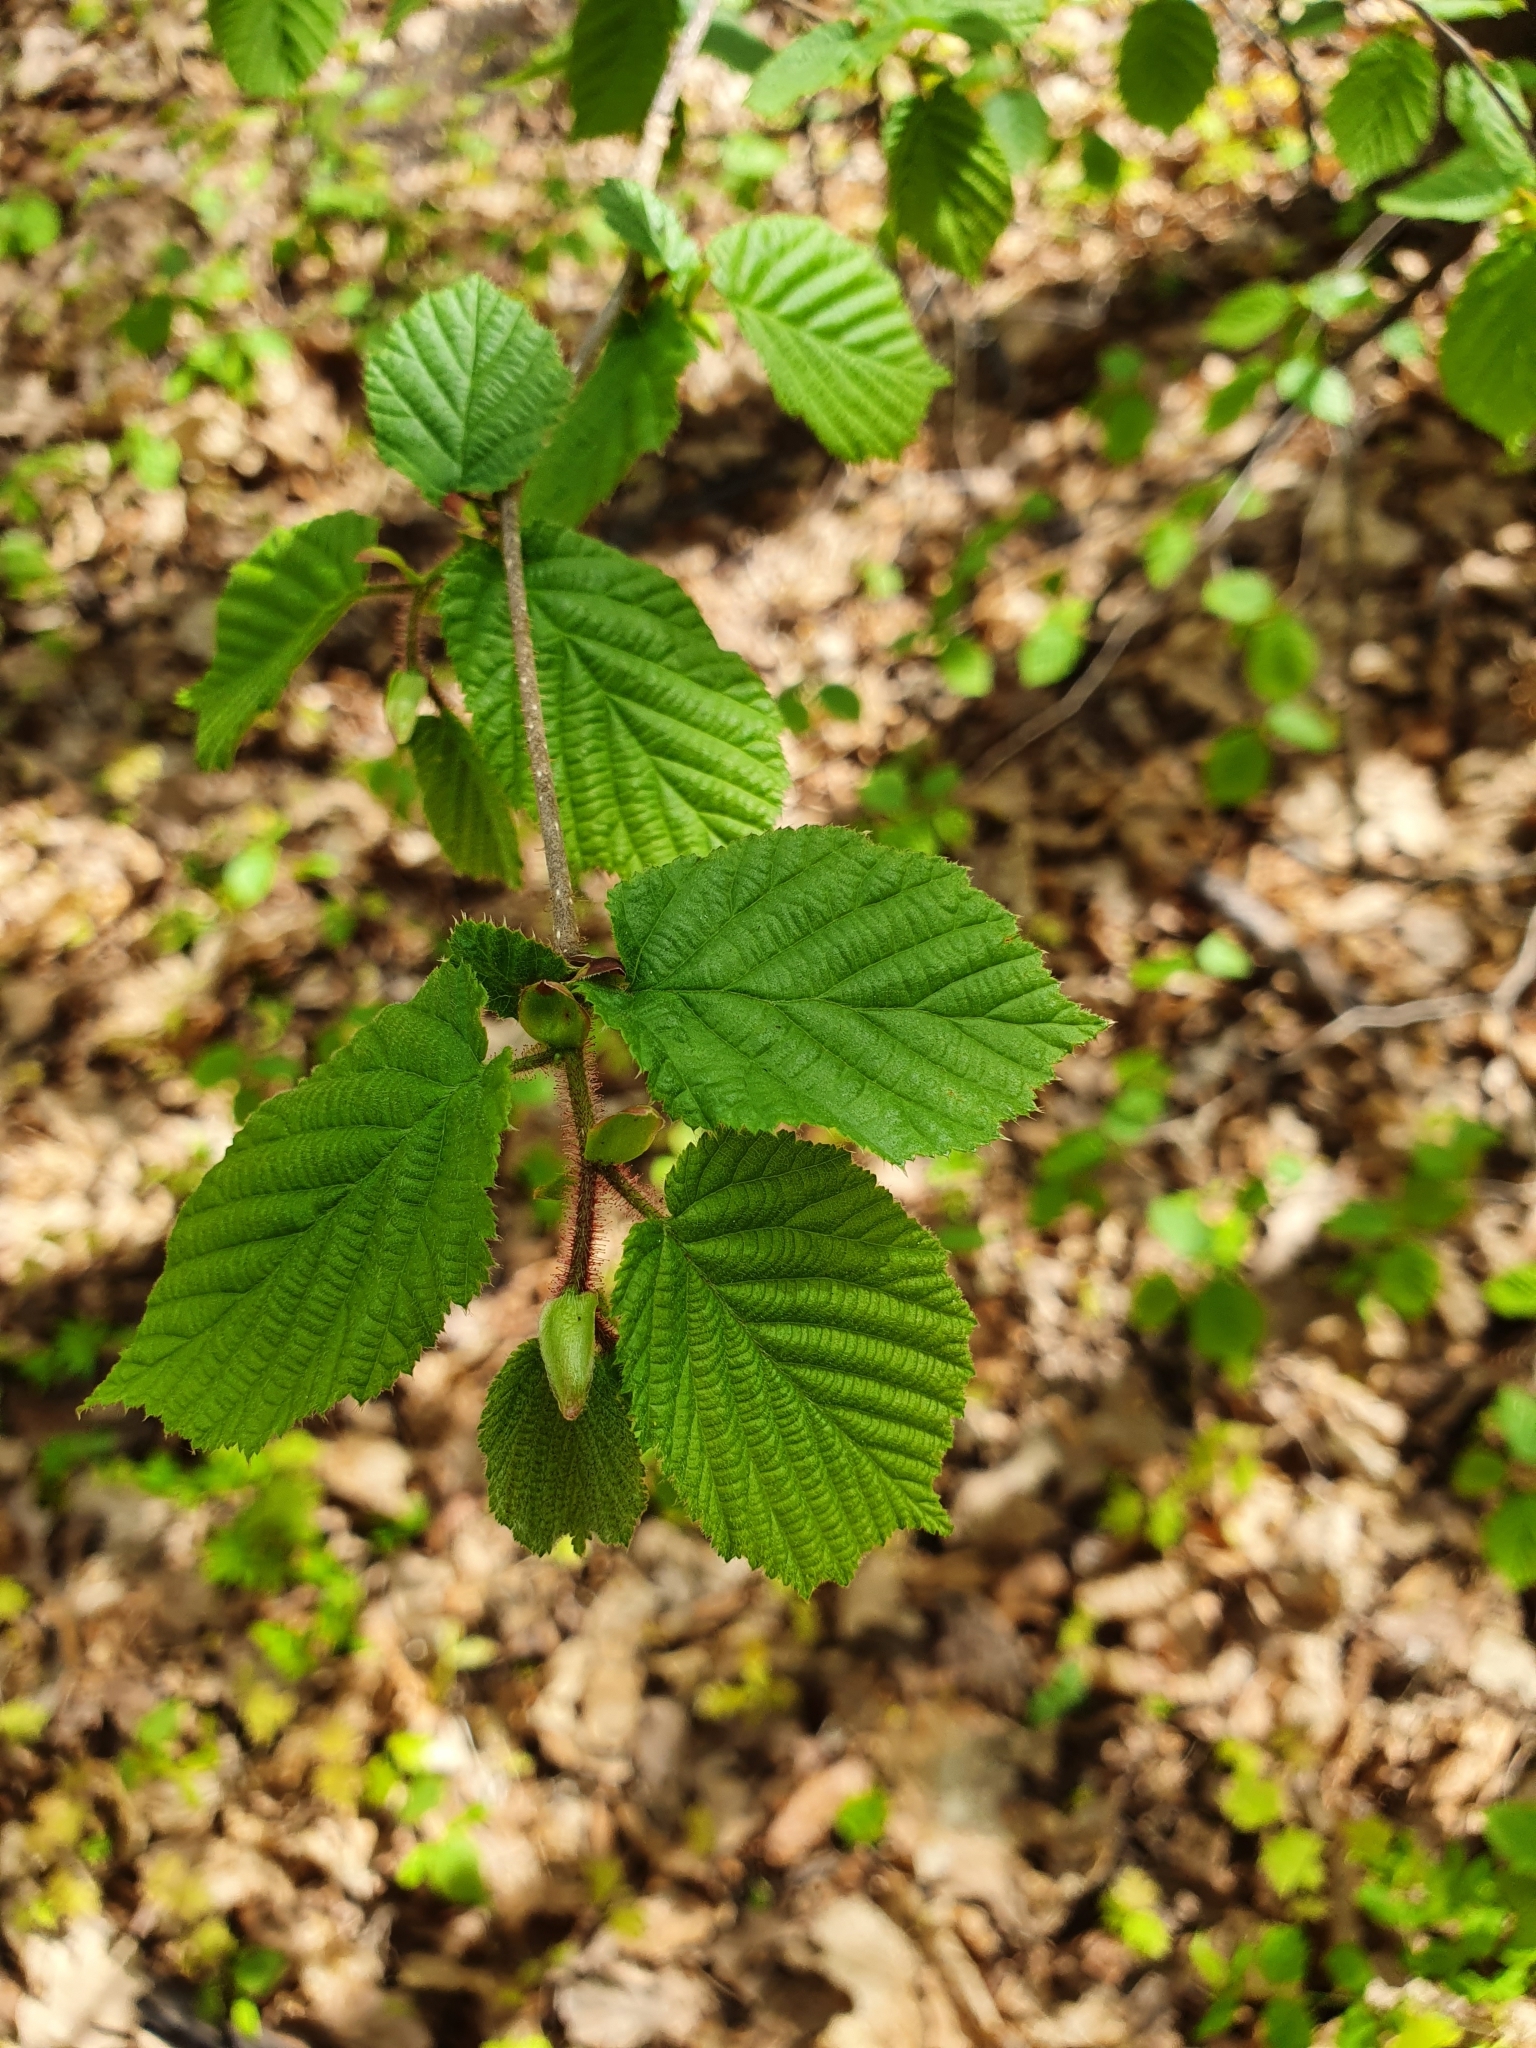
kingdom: Plantae
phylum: Tracheophyta
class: Magnoliopsida
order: Fagales
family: Betulaceae
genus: Corylus
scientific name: Corylus avellana
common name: European hazel
